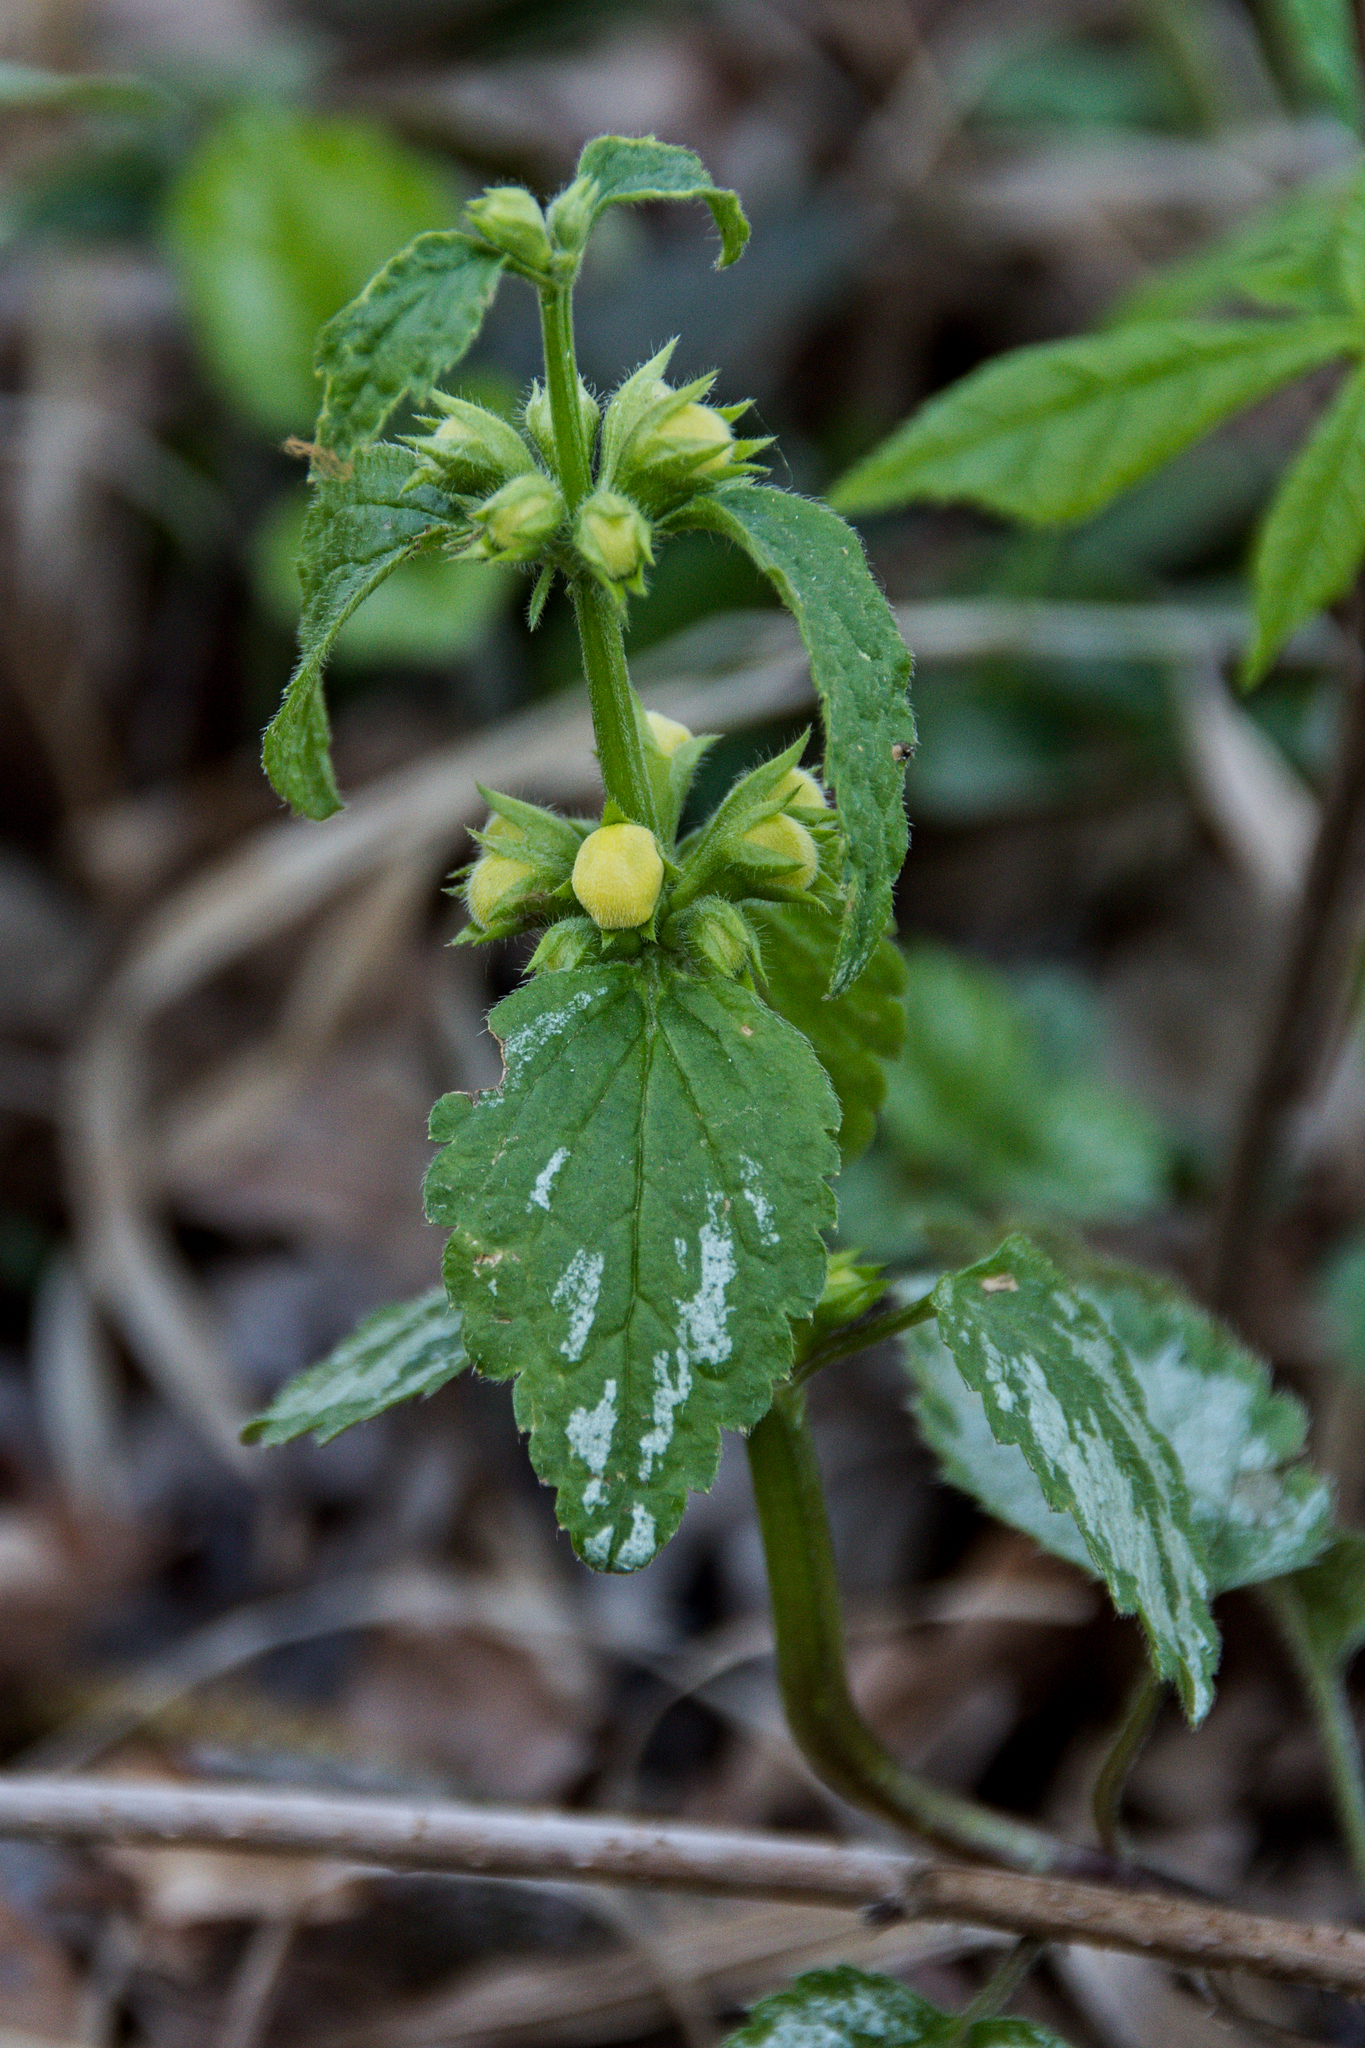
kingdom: Plantae
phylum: Tracheophyta
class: Magnoliopsida
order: Lamiales
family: Lamiaceae
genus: Lamium
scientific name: Lamium galeobdolon
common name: Yellow archangel
